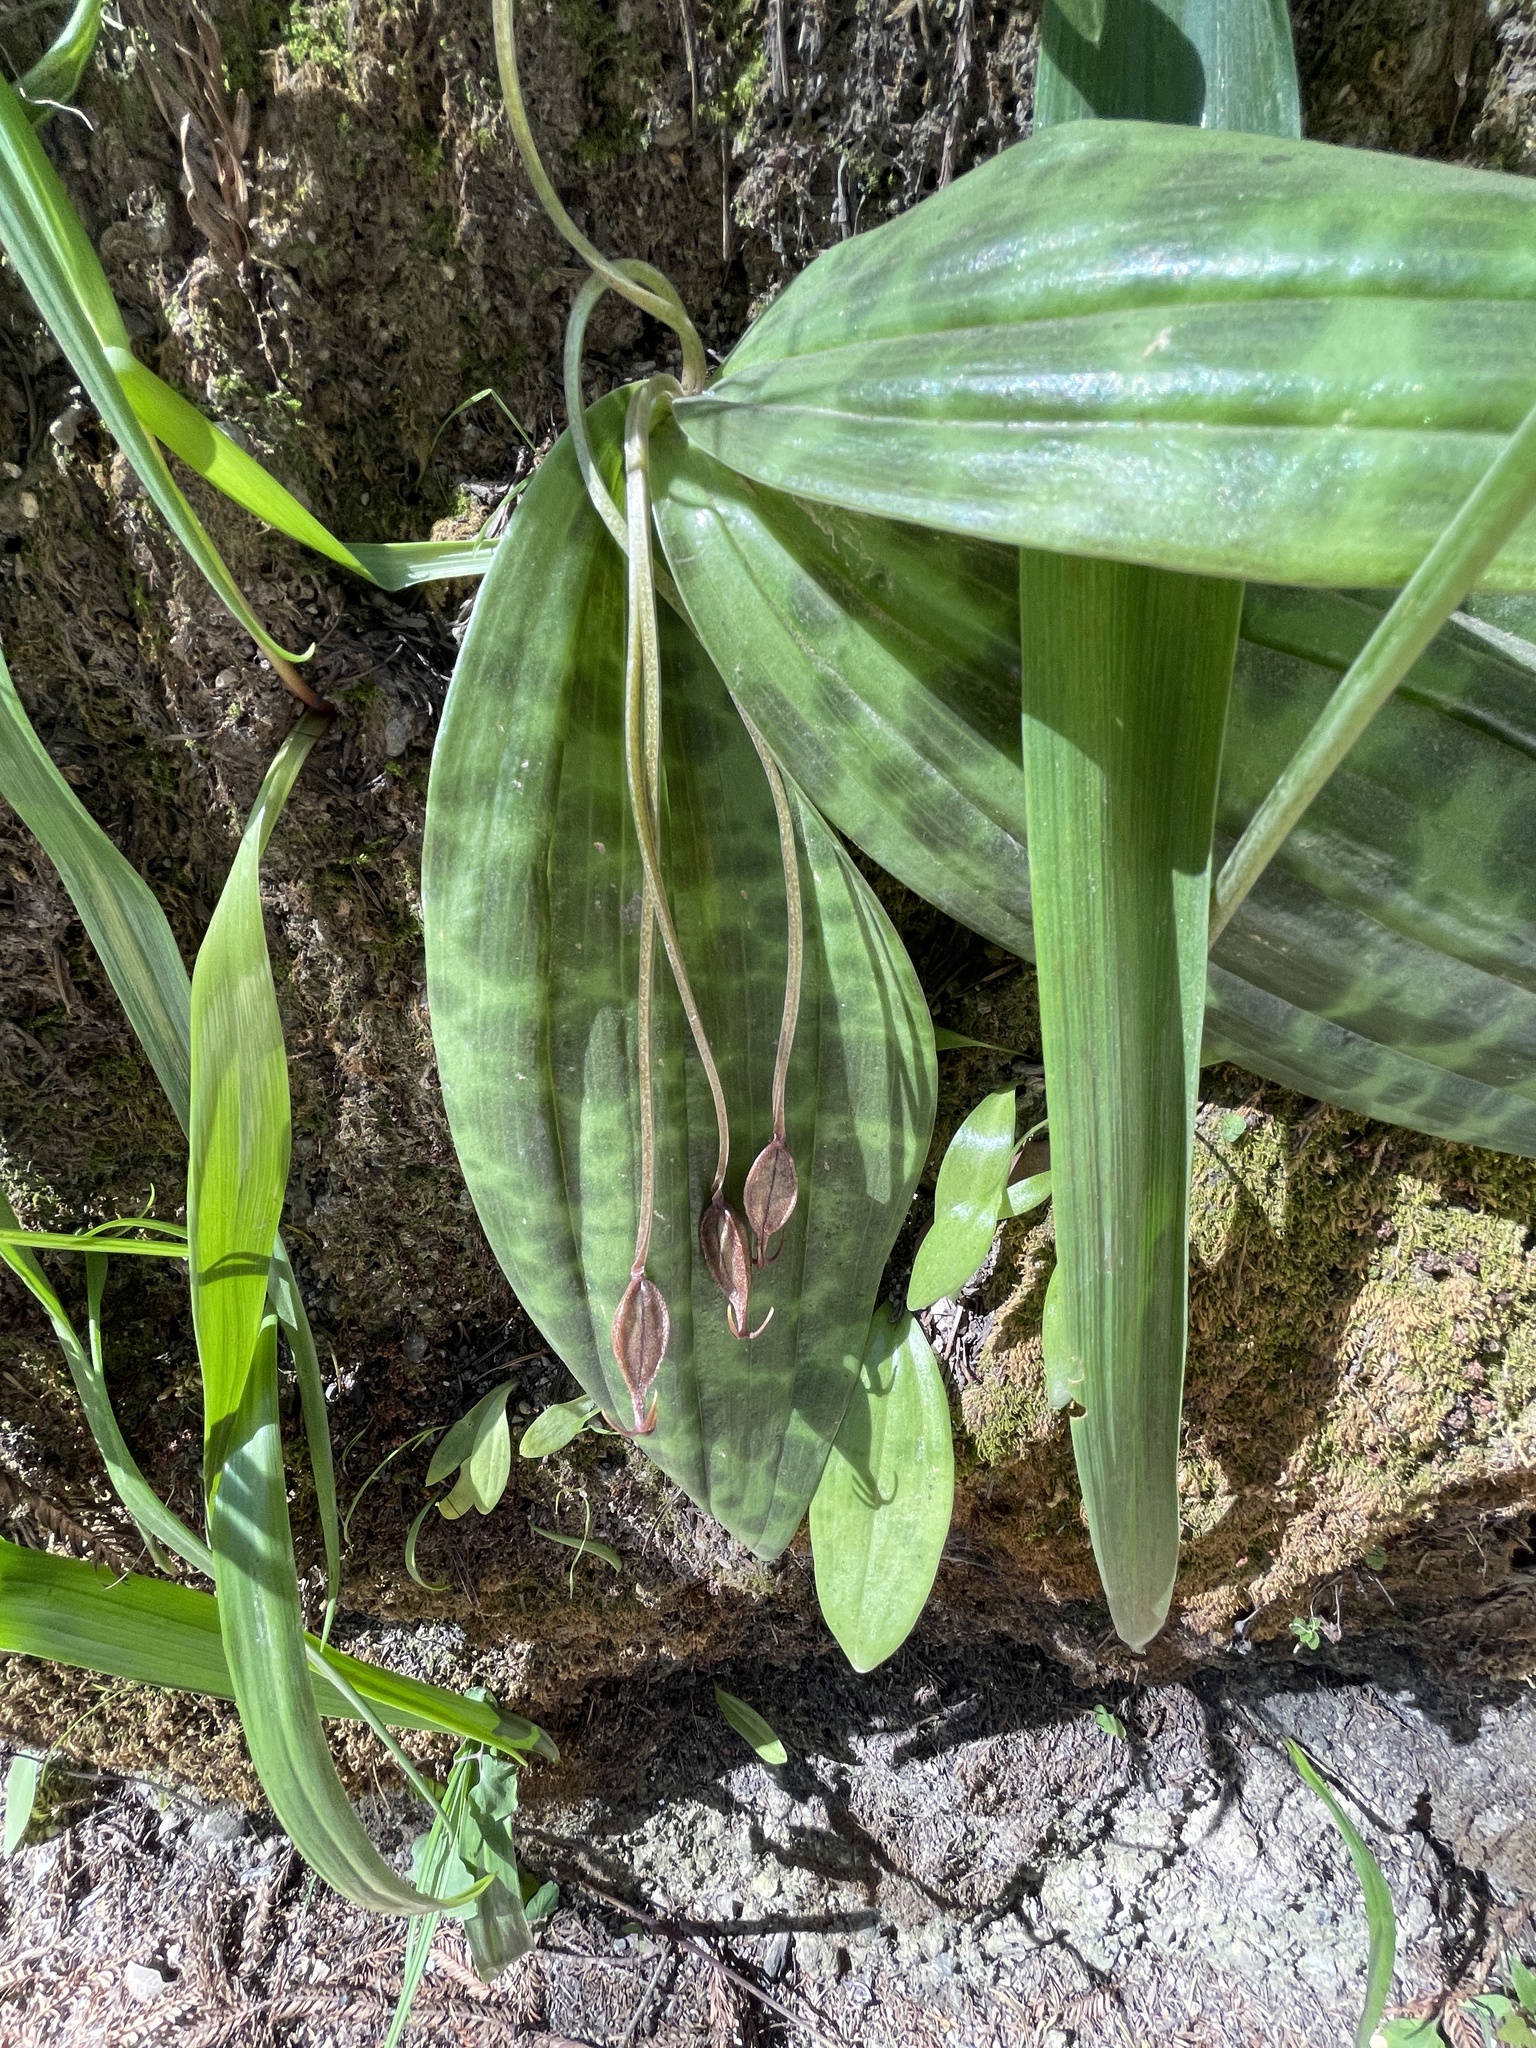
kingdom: Plantae
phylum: Tracheophyta
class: Liliopsida
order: Liliales
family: Liliaceae
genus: Scoliopus
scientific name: Scoliopus bigelovii
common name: Foetid adder's-tongue
